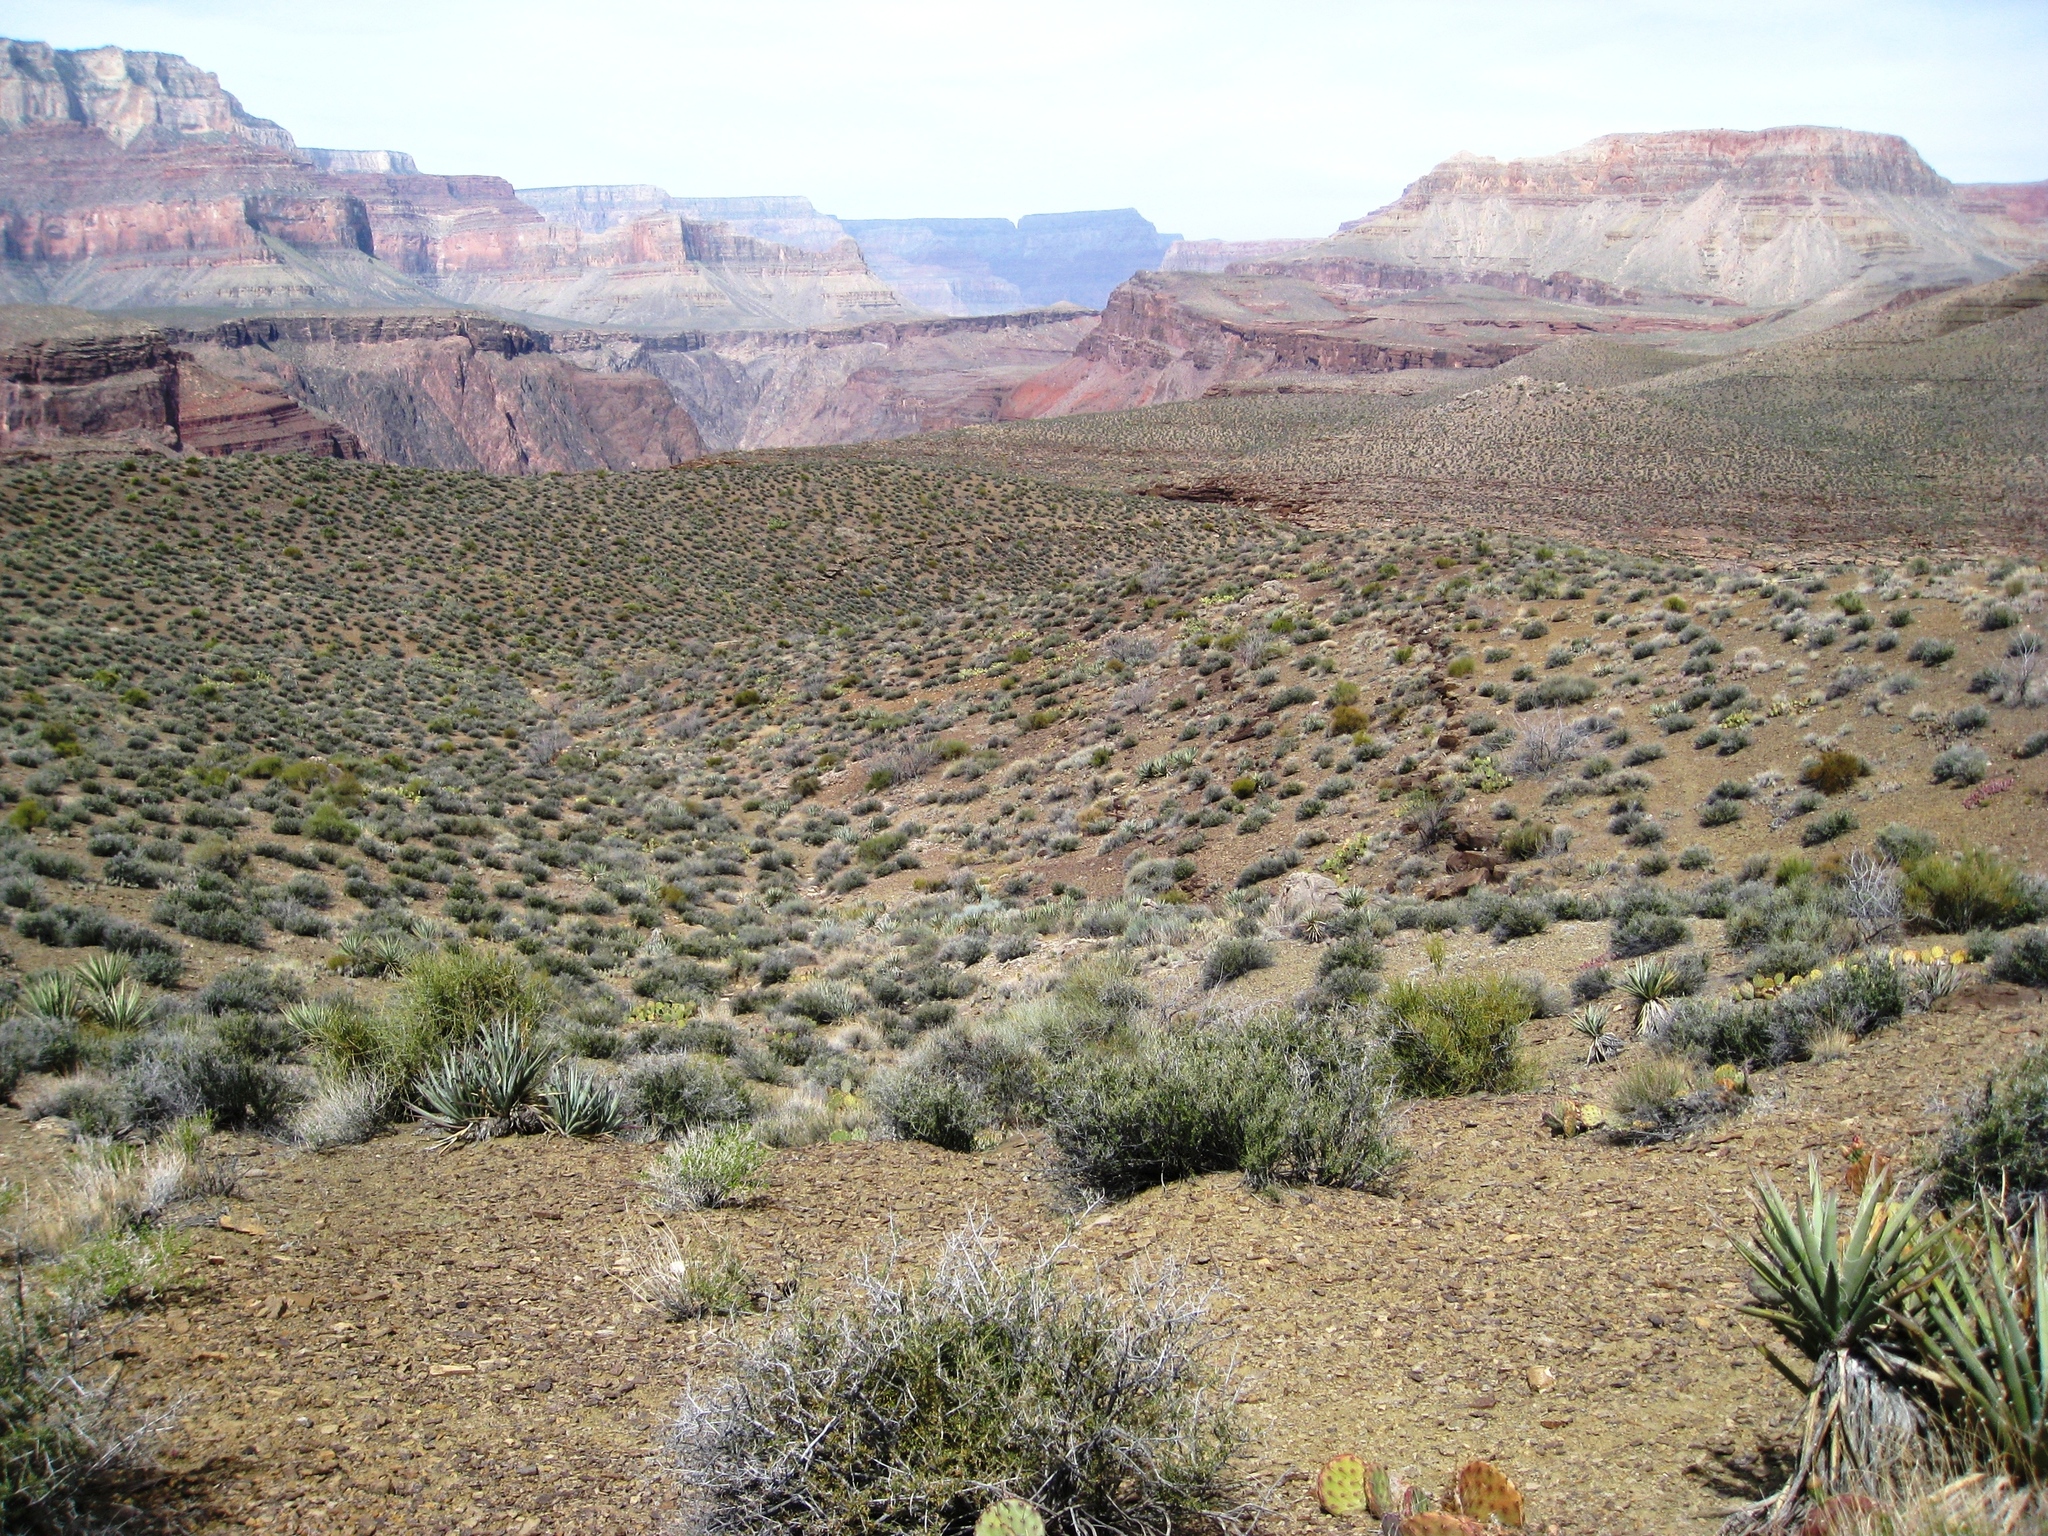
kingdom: Plantae
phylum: Tracheophyta
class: Magnoliopsida
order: Rosales
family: Rosaceae
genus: Coleogyne
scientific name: Coleogyne ramosissima
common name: Blackbrush
